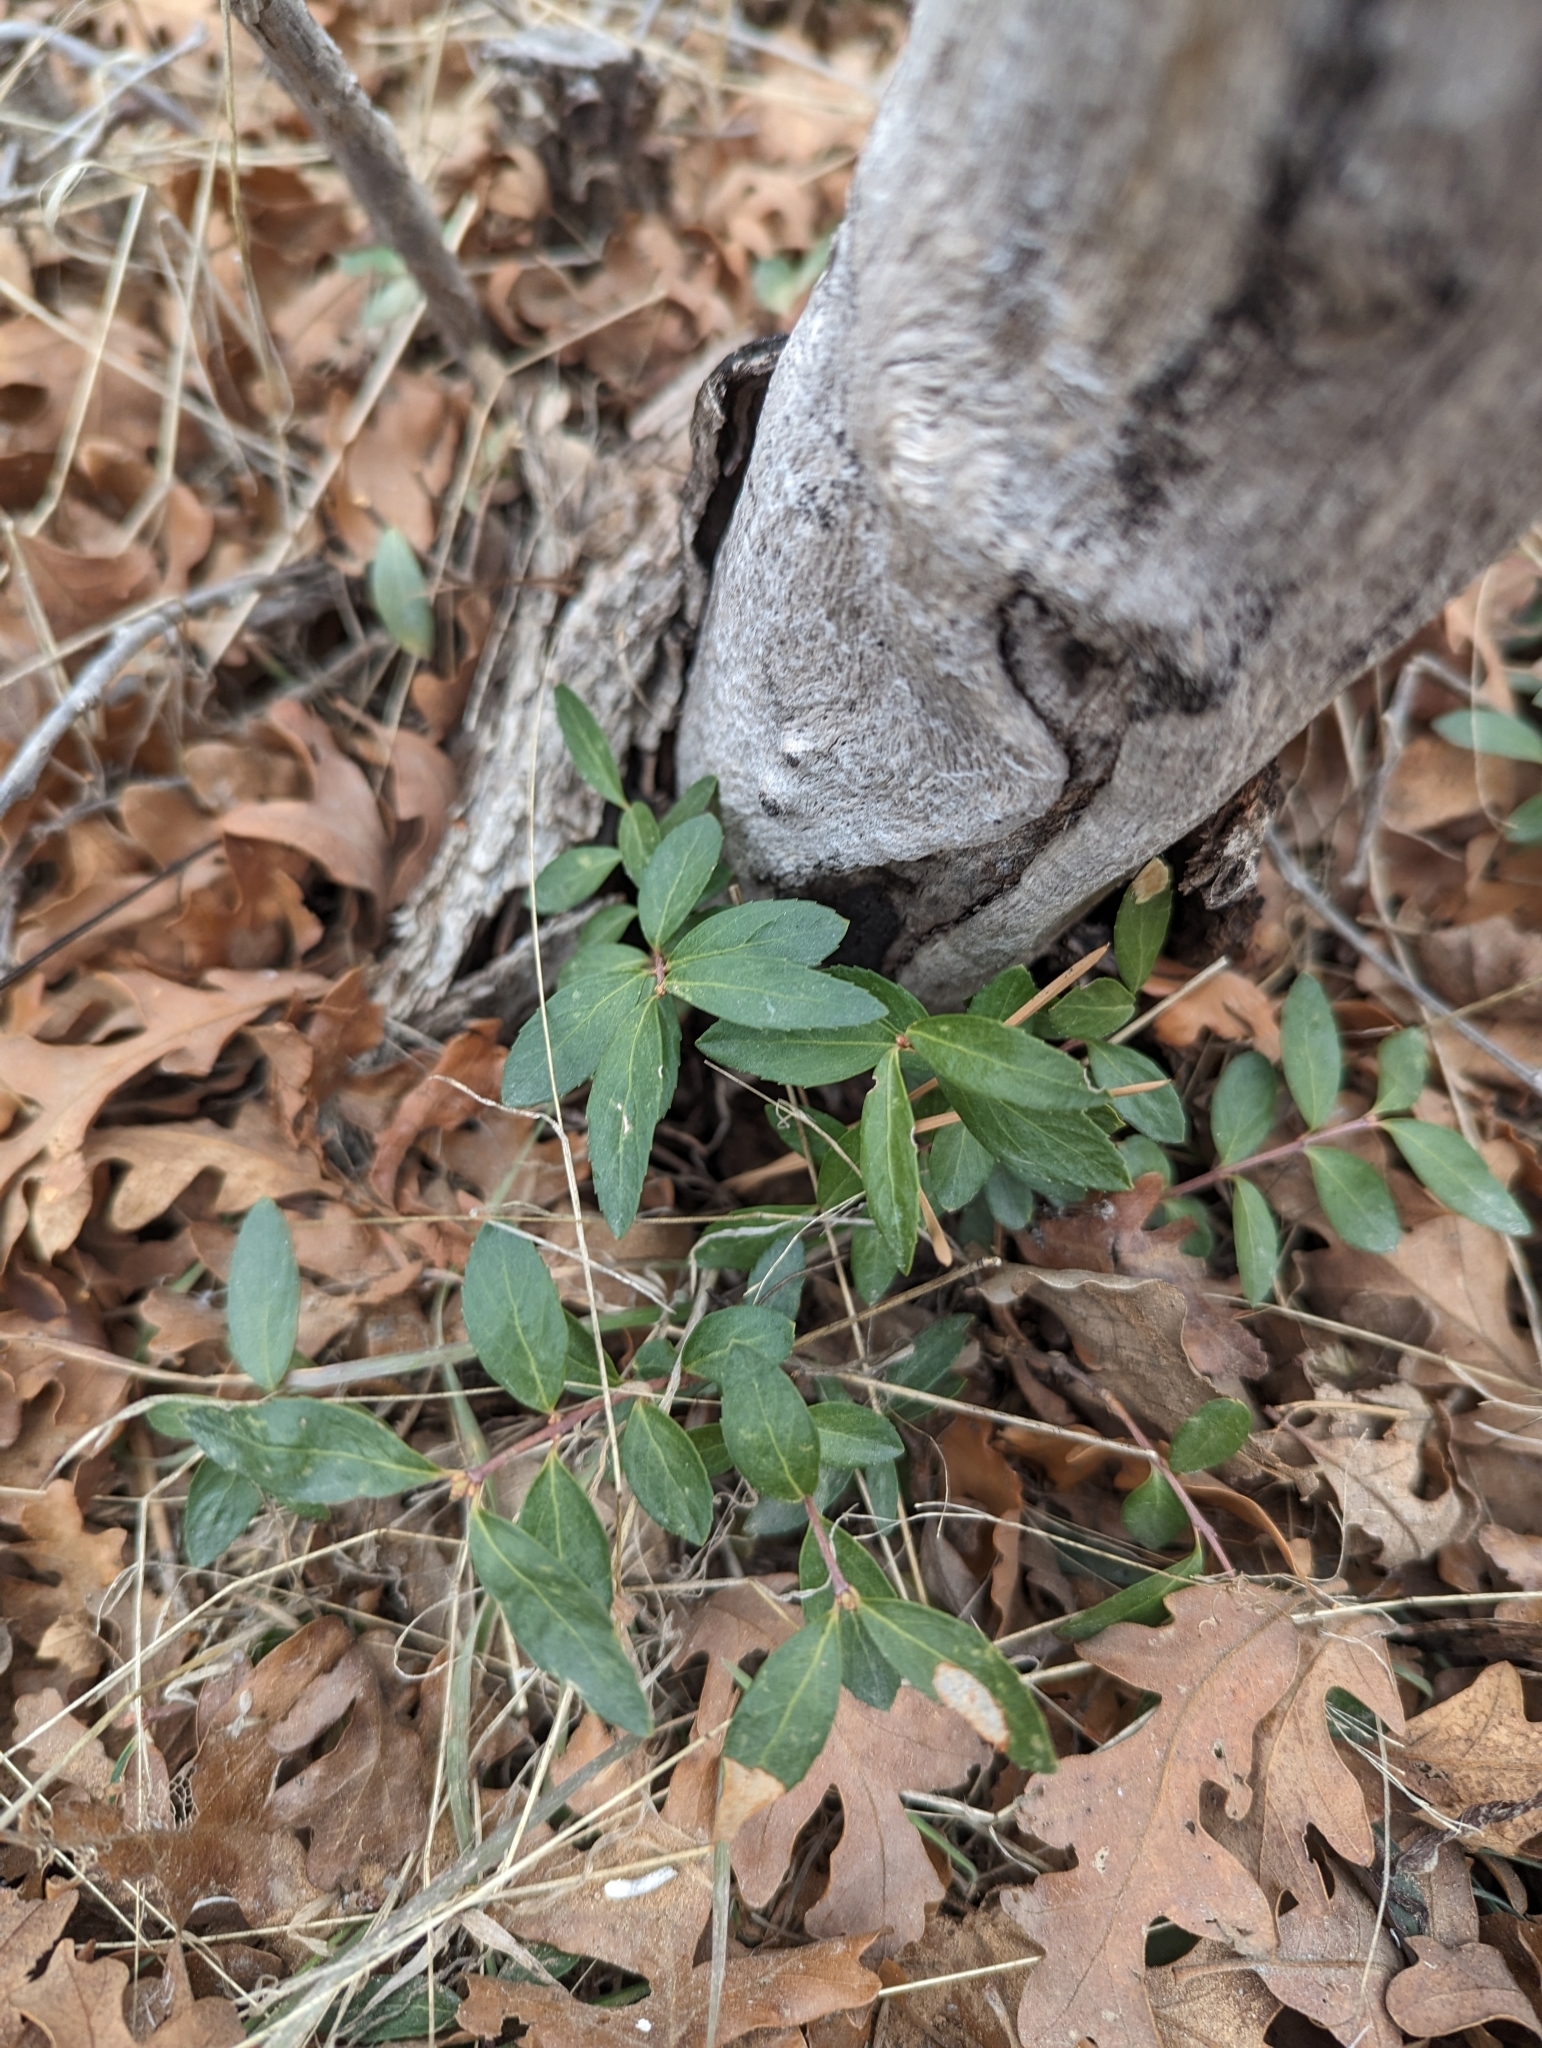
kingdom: Plantae
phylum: Tracheophyta
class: Magnoliopsida
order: Celastrales
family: Celastraceae
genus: Paxistima
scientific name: Paxistima myrsinites
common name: Mountain-lover
